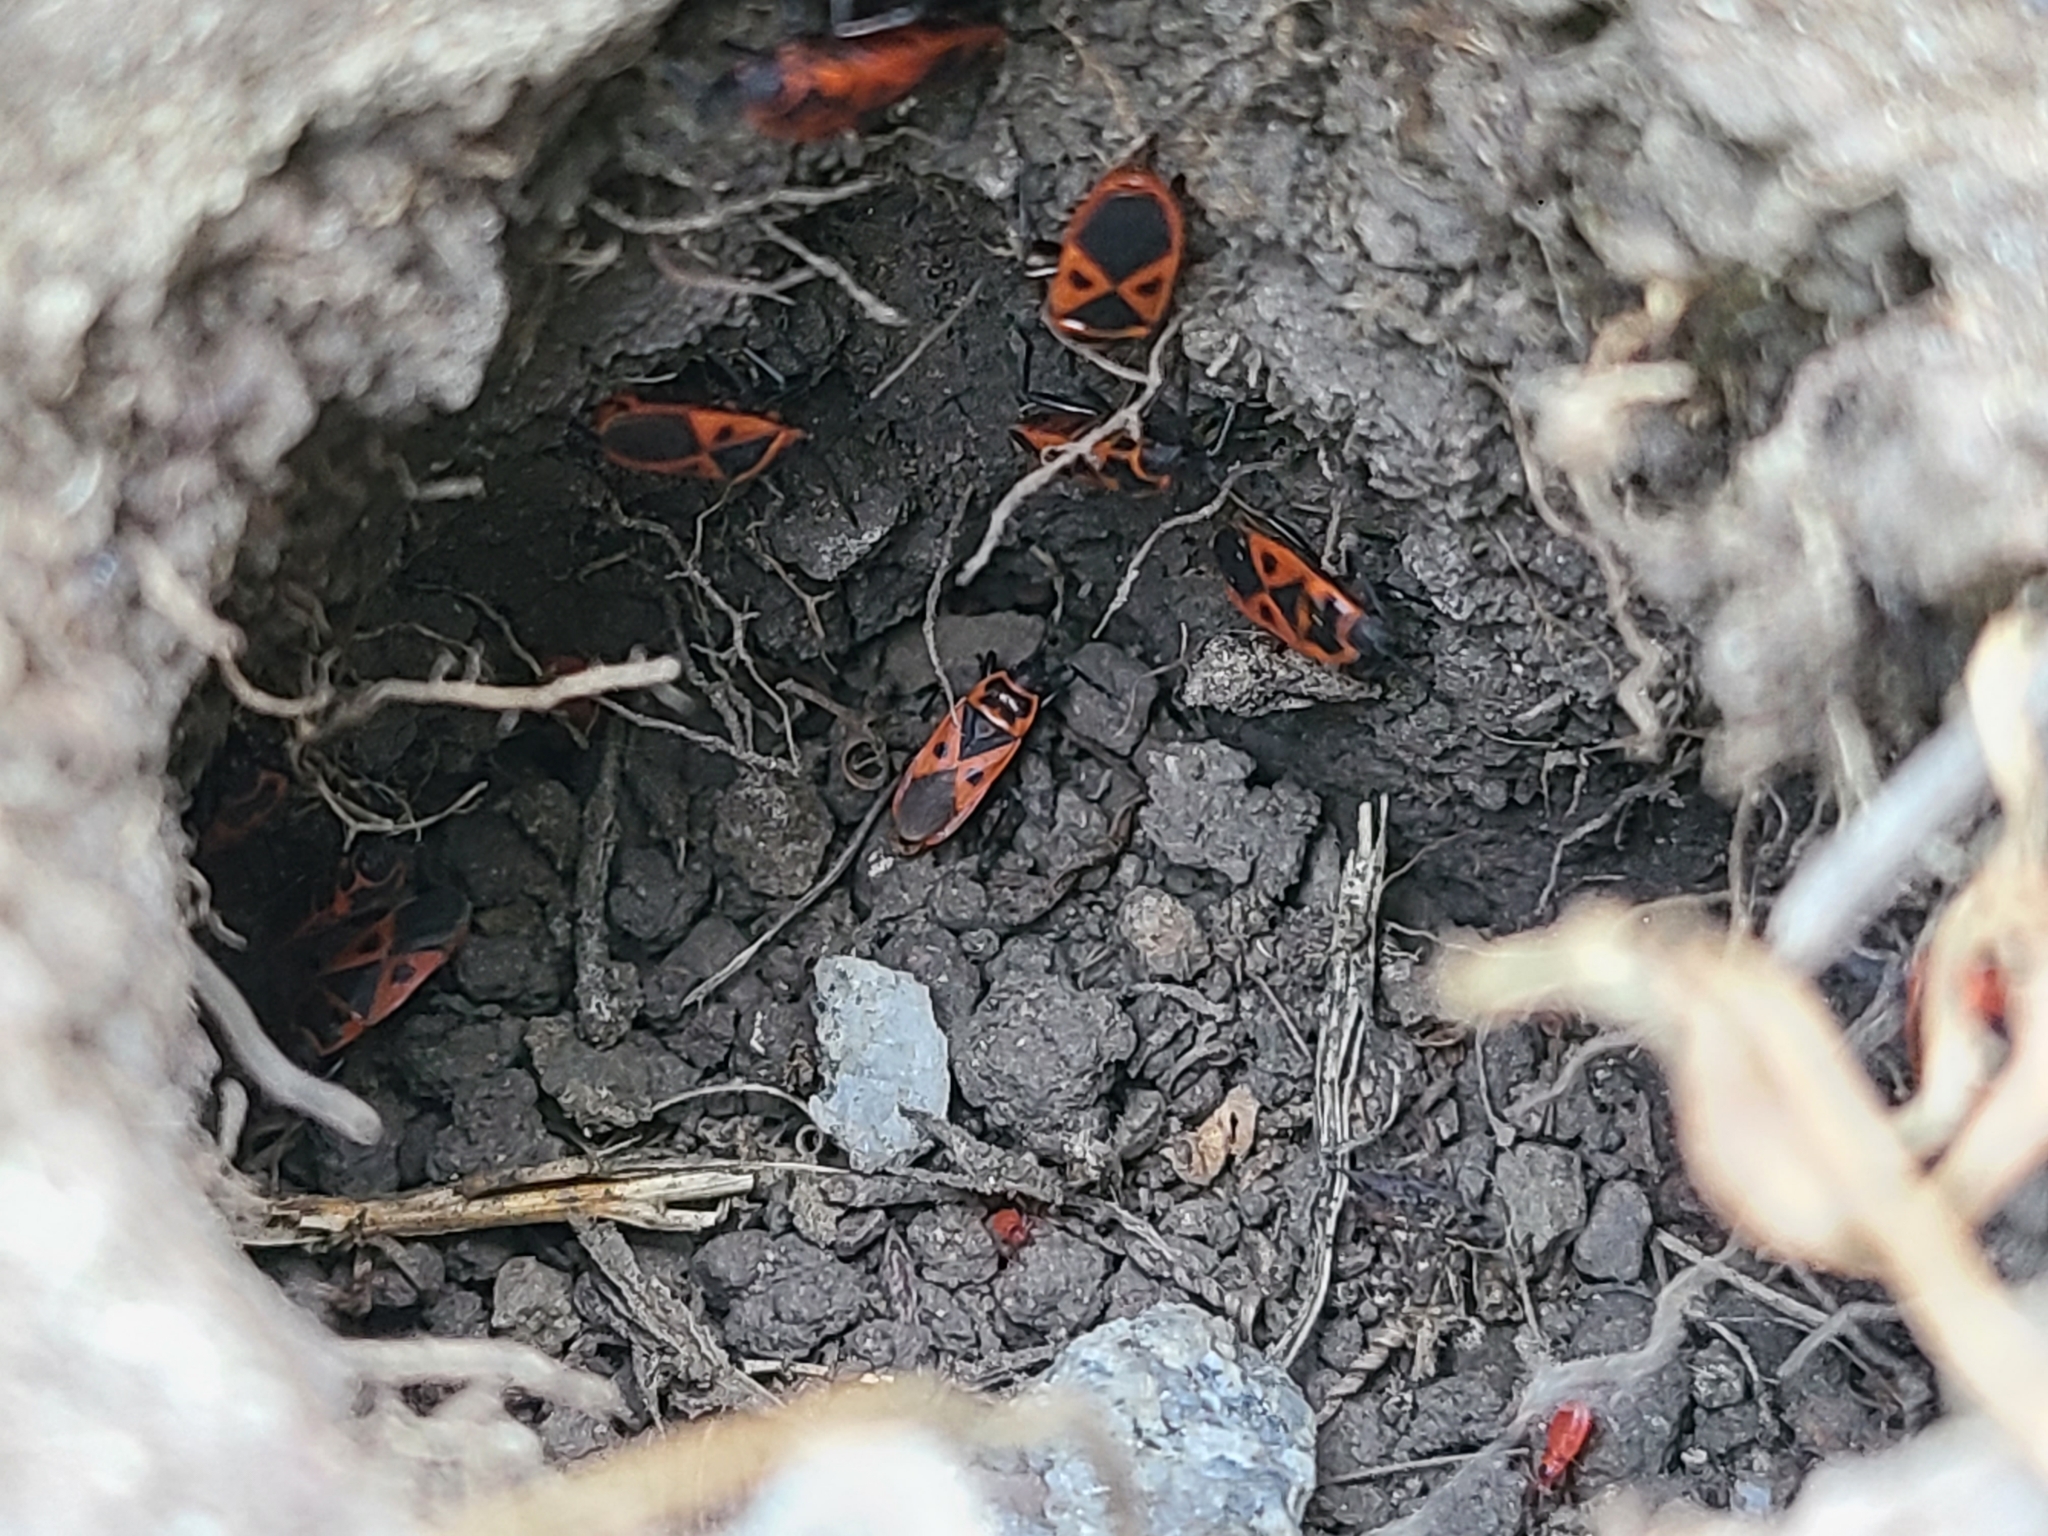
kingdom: Animalia
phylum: Arthropoda
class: Insecta
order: Hemiptera
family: Pyrrhocoridae
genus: Scantius
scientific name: Scantius aegyptius
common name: Red bug
